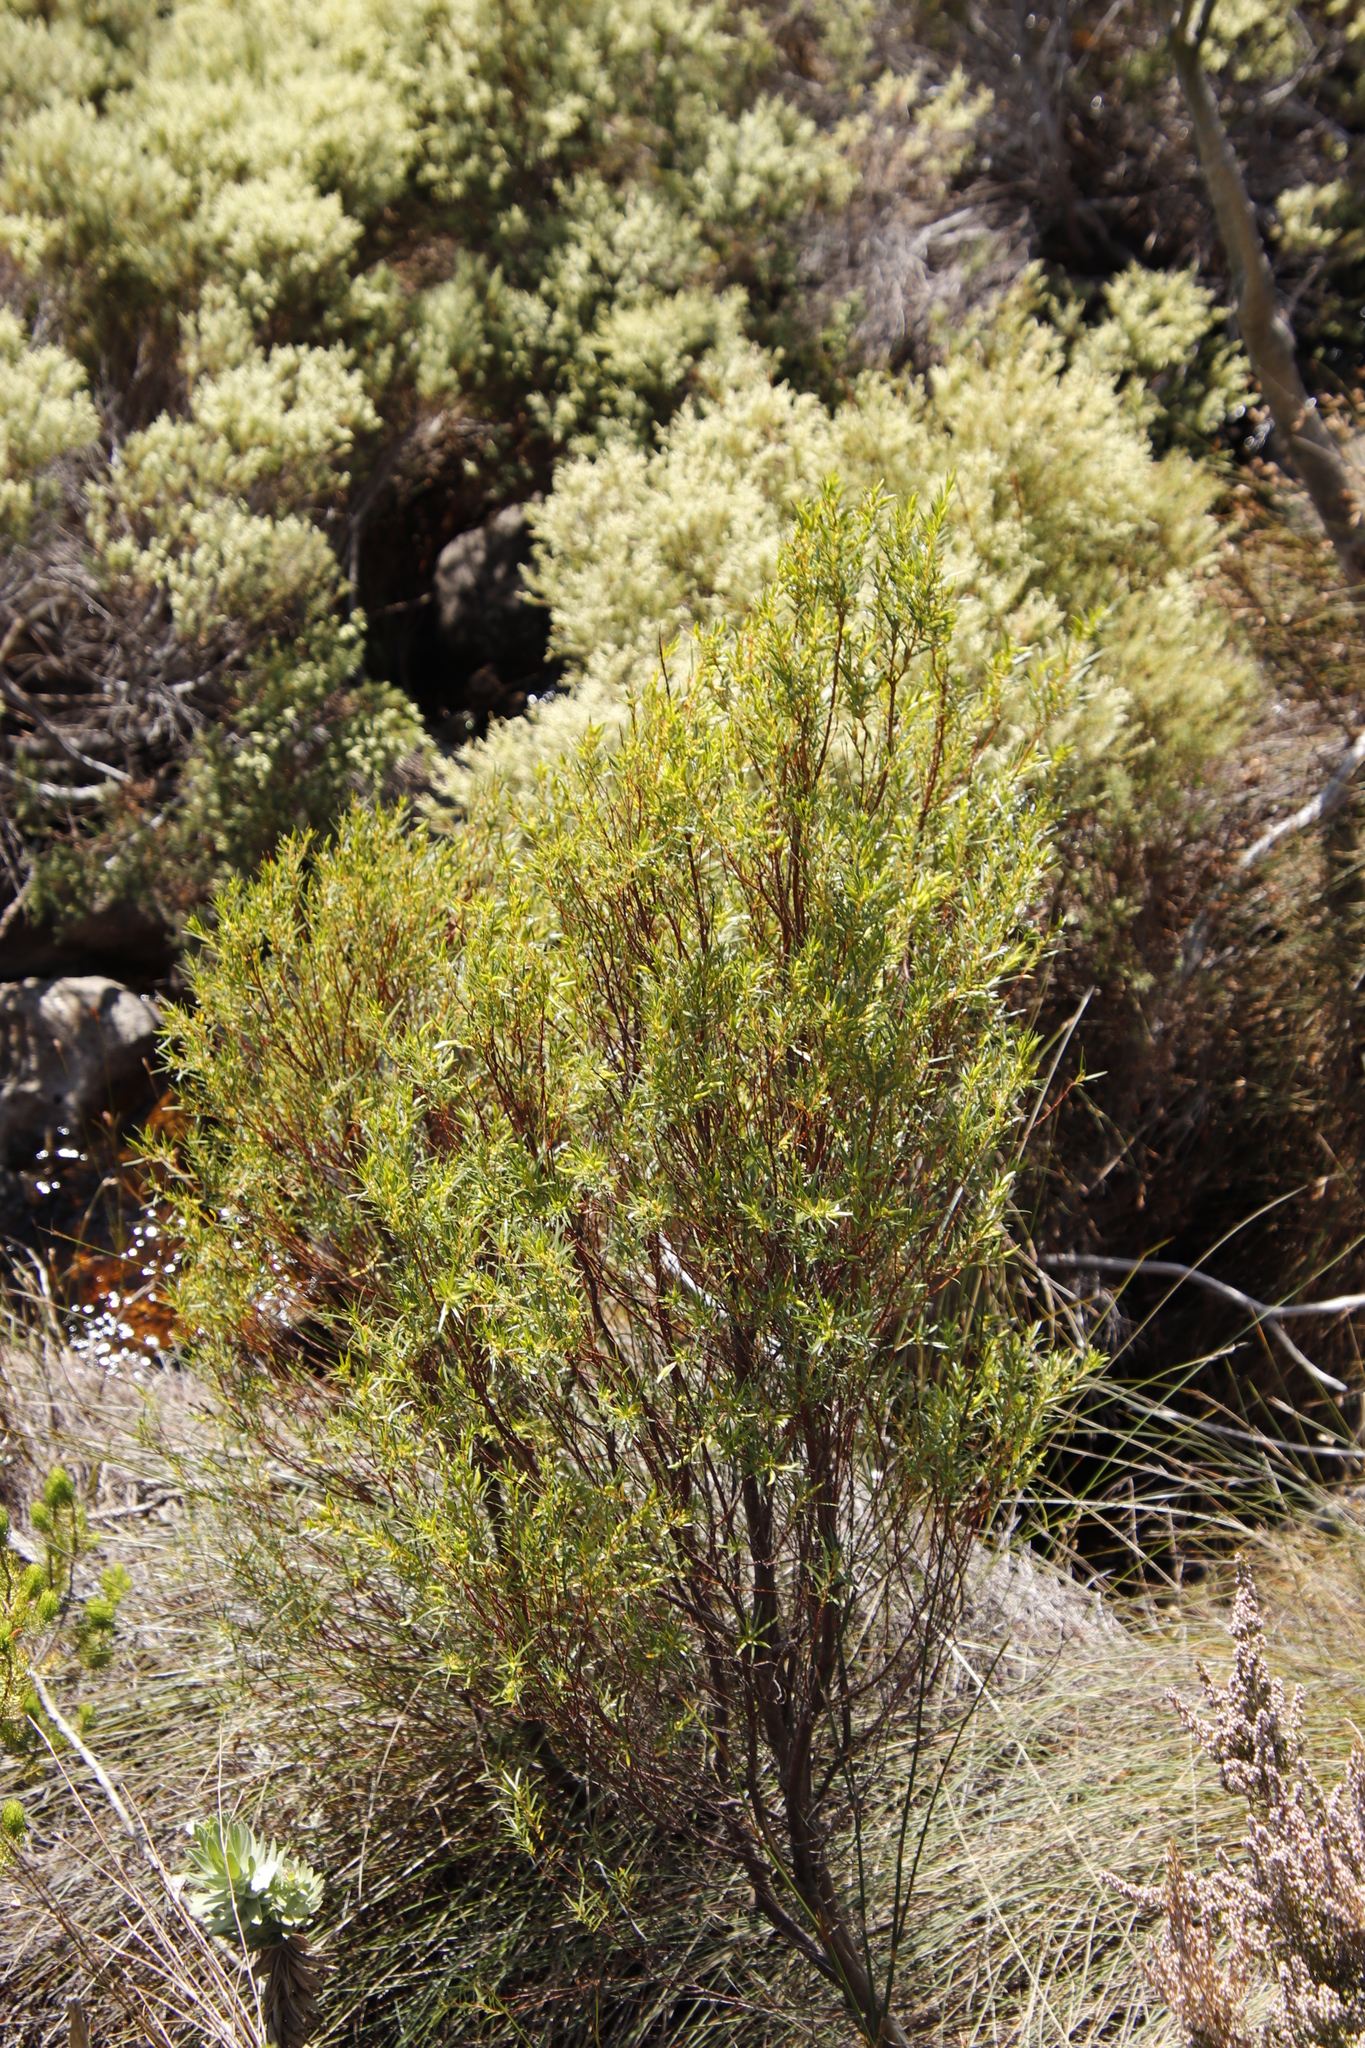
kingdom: Plantae
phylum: Tracheophyta
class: Magnoliopsida
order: Sapindales
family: Rutaceae
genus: Empleurum
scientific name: Empleurum unicapsulare
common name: False buchu
